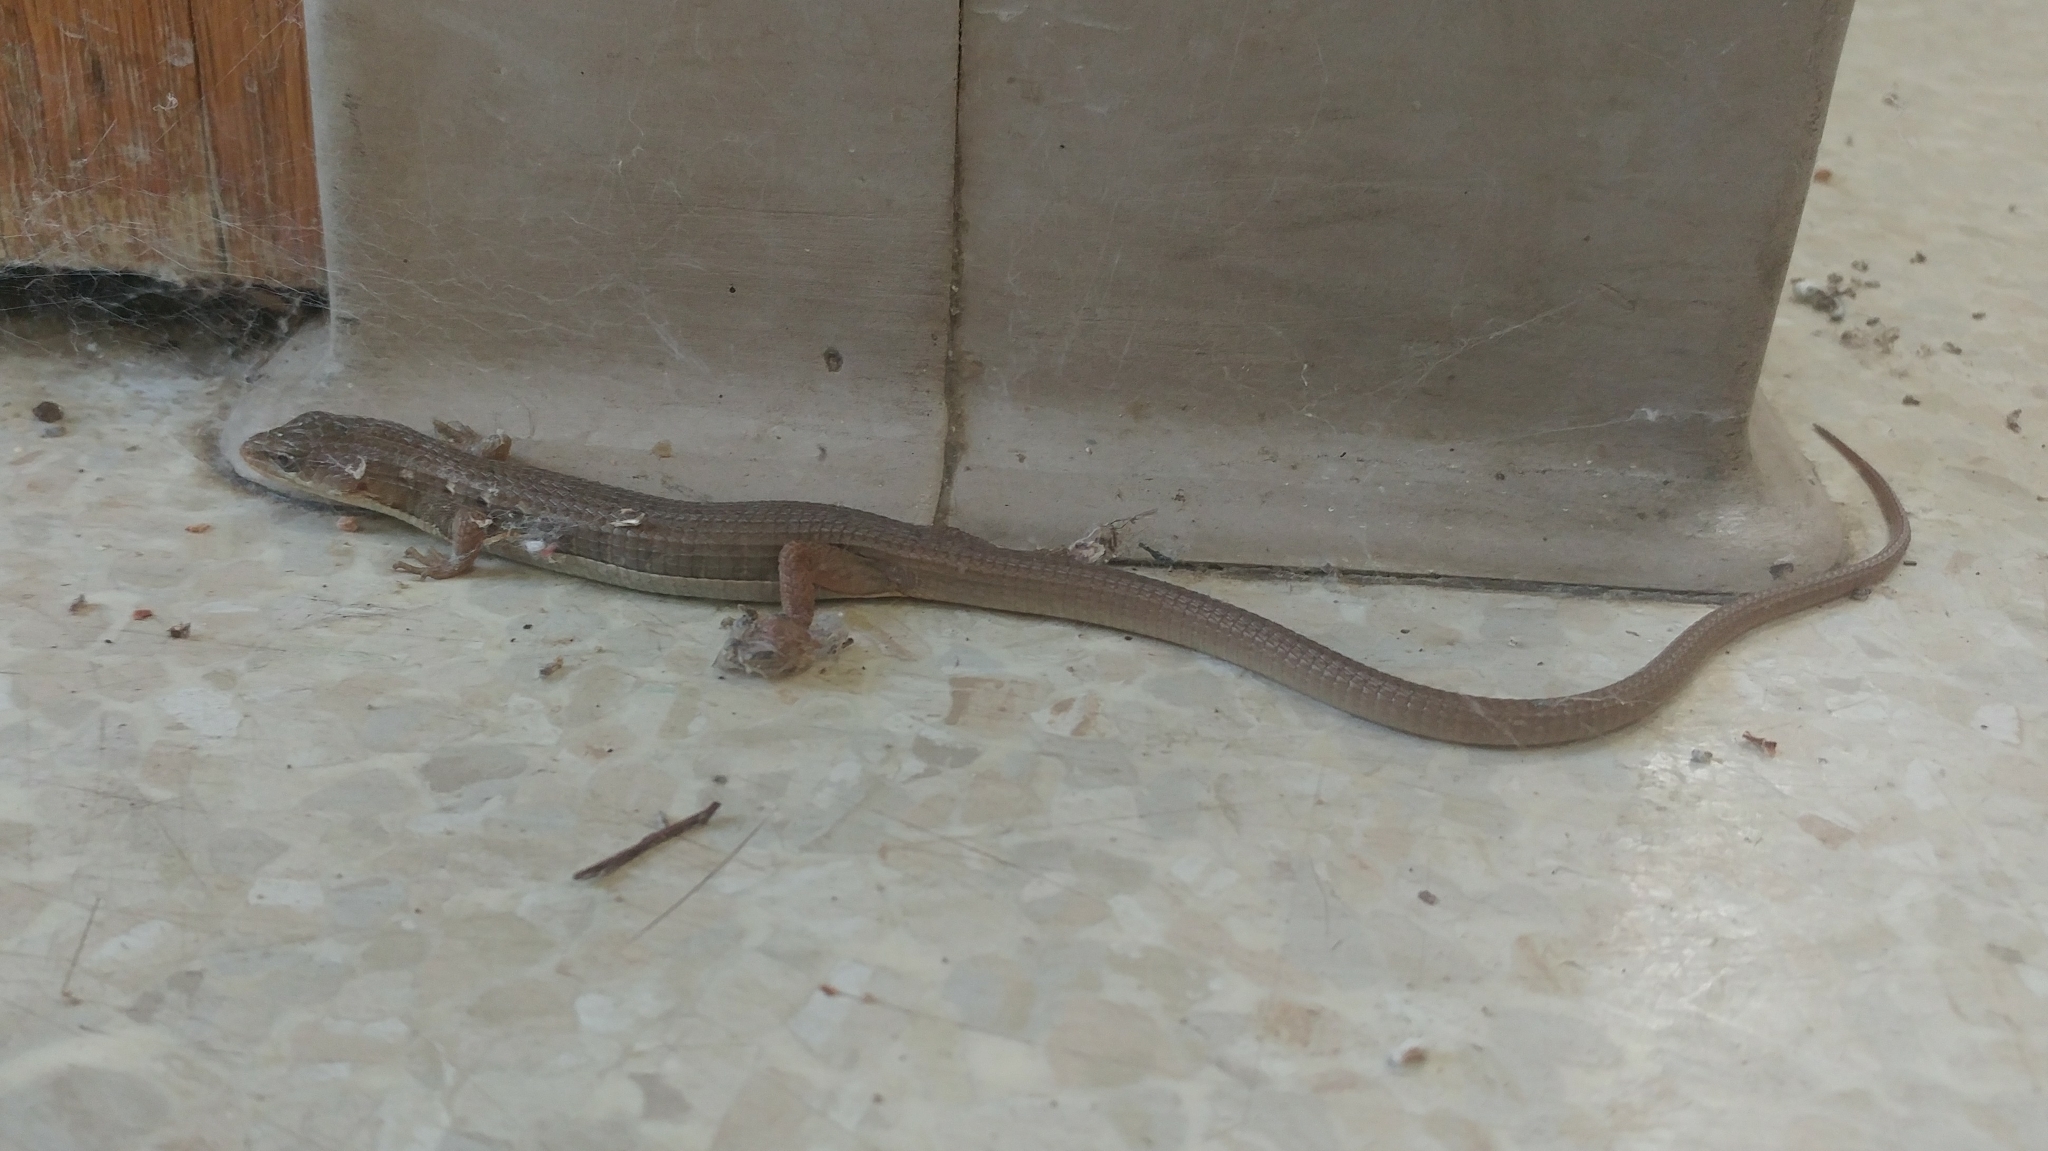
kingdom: Animalia
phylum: Chordata
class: Squamata
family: Anguidae
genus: Elgaria
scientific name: Elgaria multicarinata
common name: Southern alligator lizard
